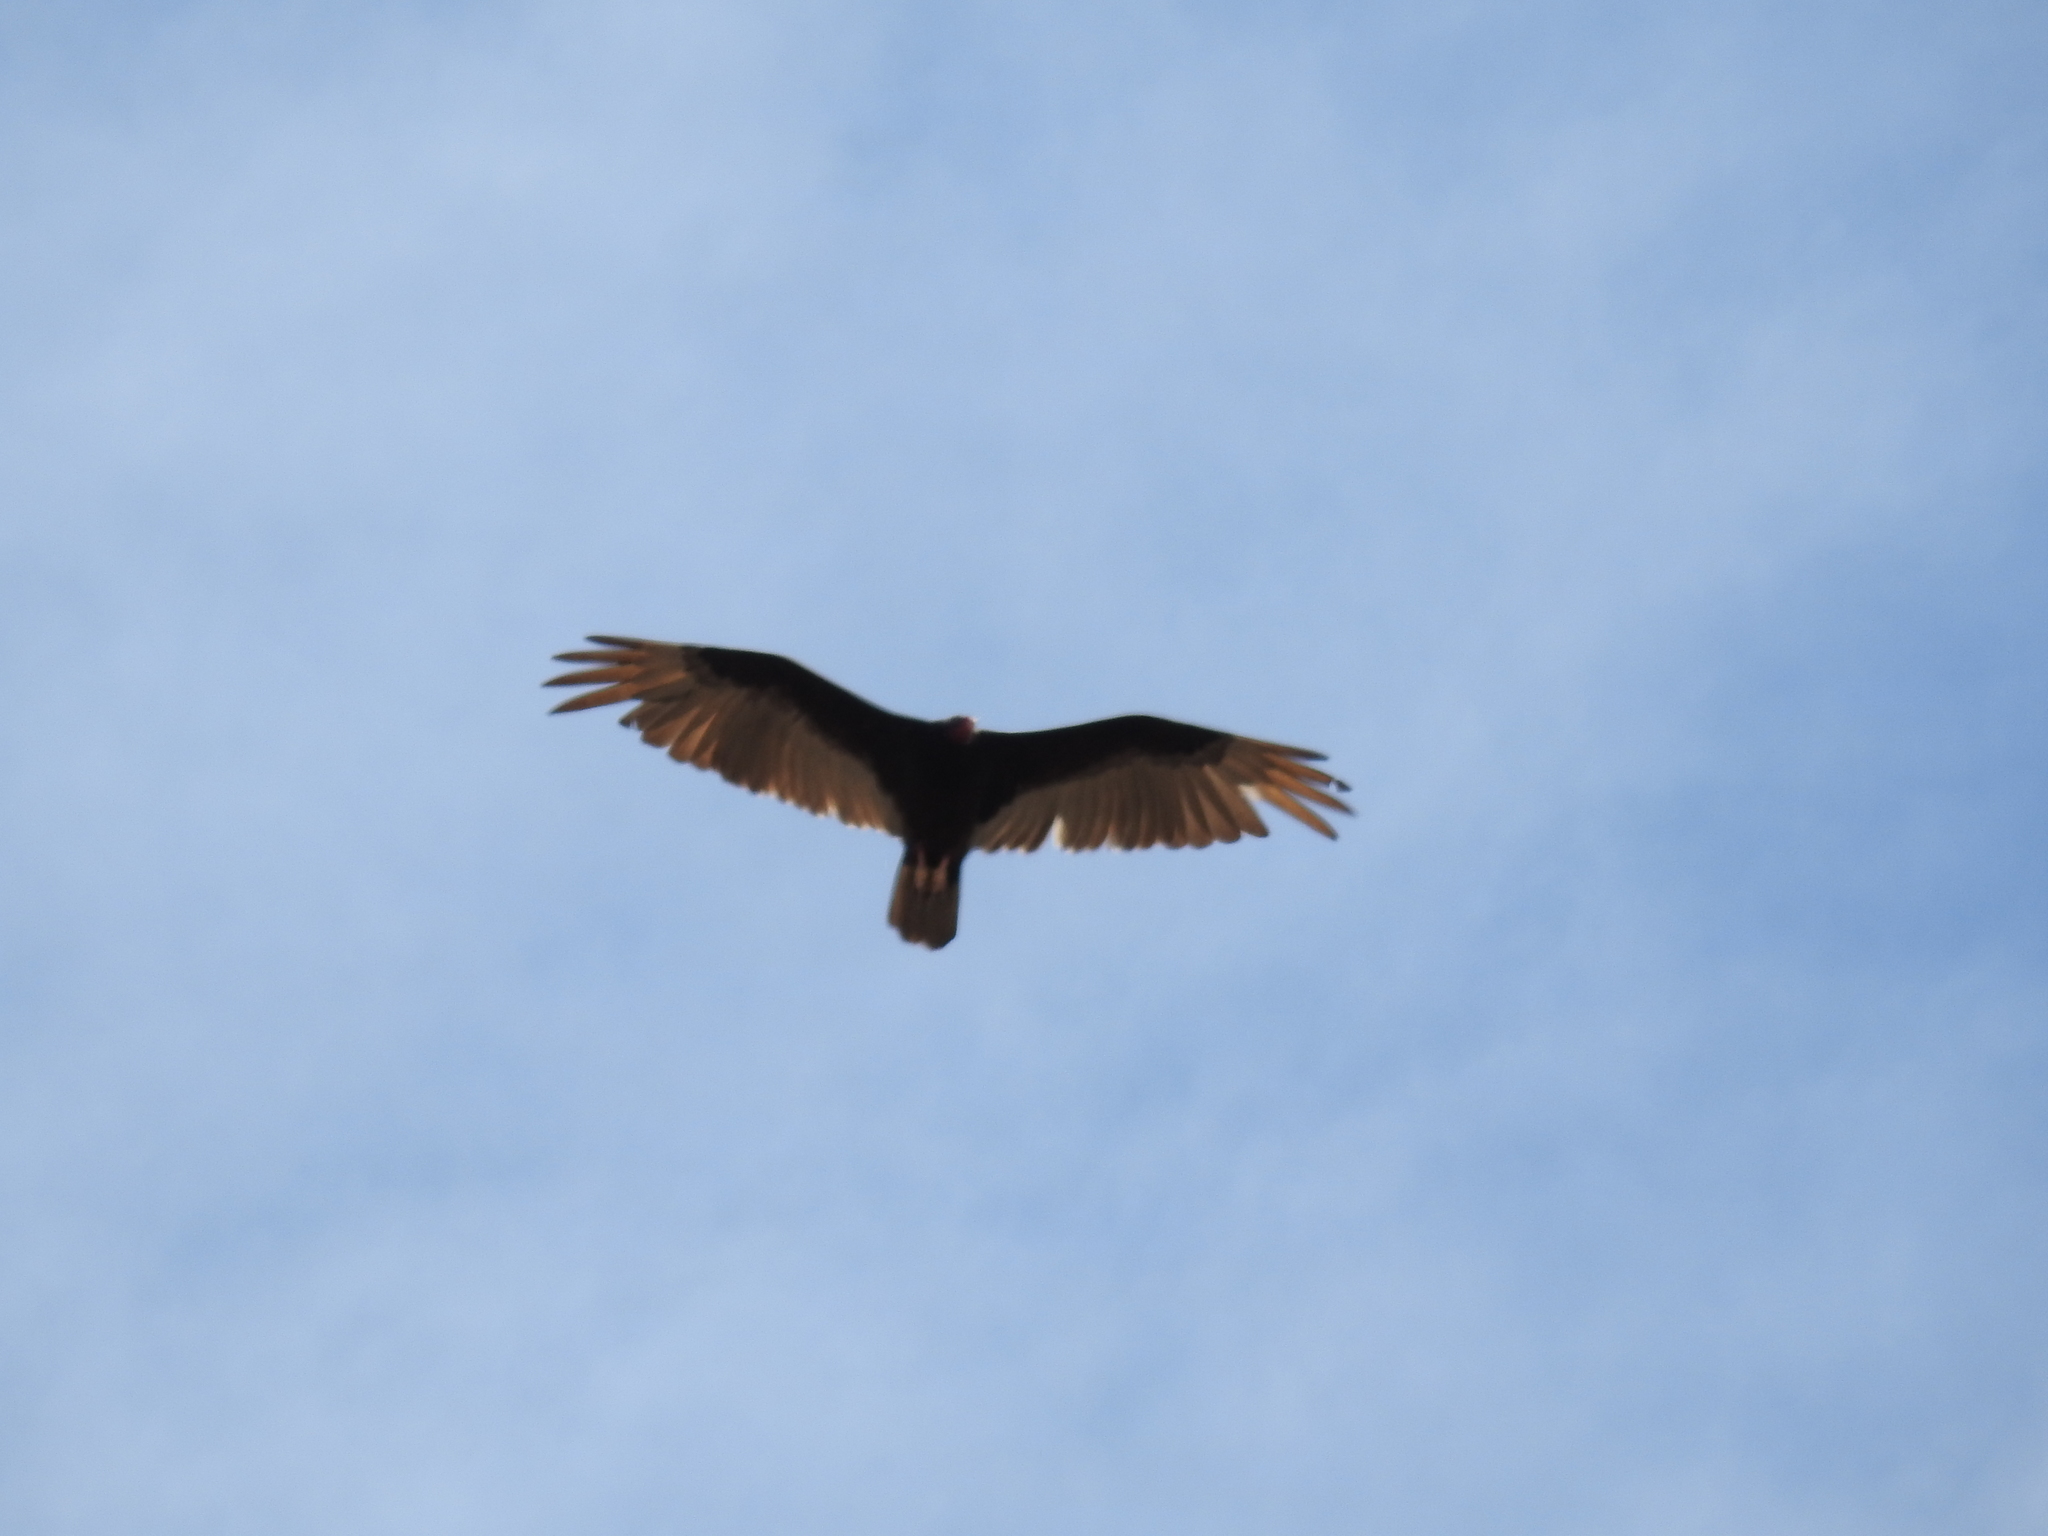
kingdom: Animalia
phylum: Chordata
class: Aves
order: Accipitriformes
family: Cathartidae
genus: Cathartes
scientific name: Cathartes aura
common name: Turkey vulture
